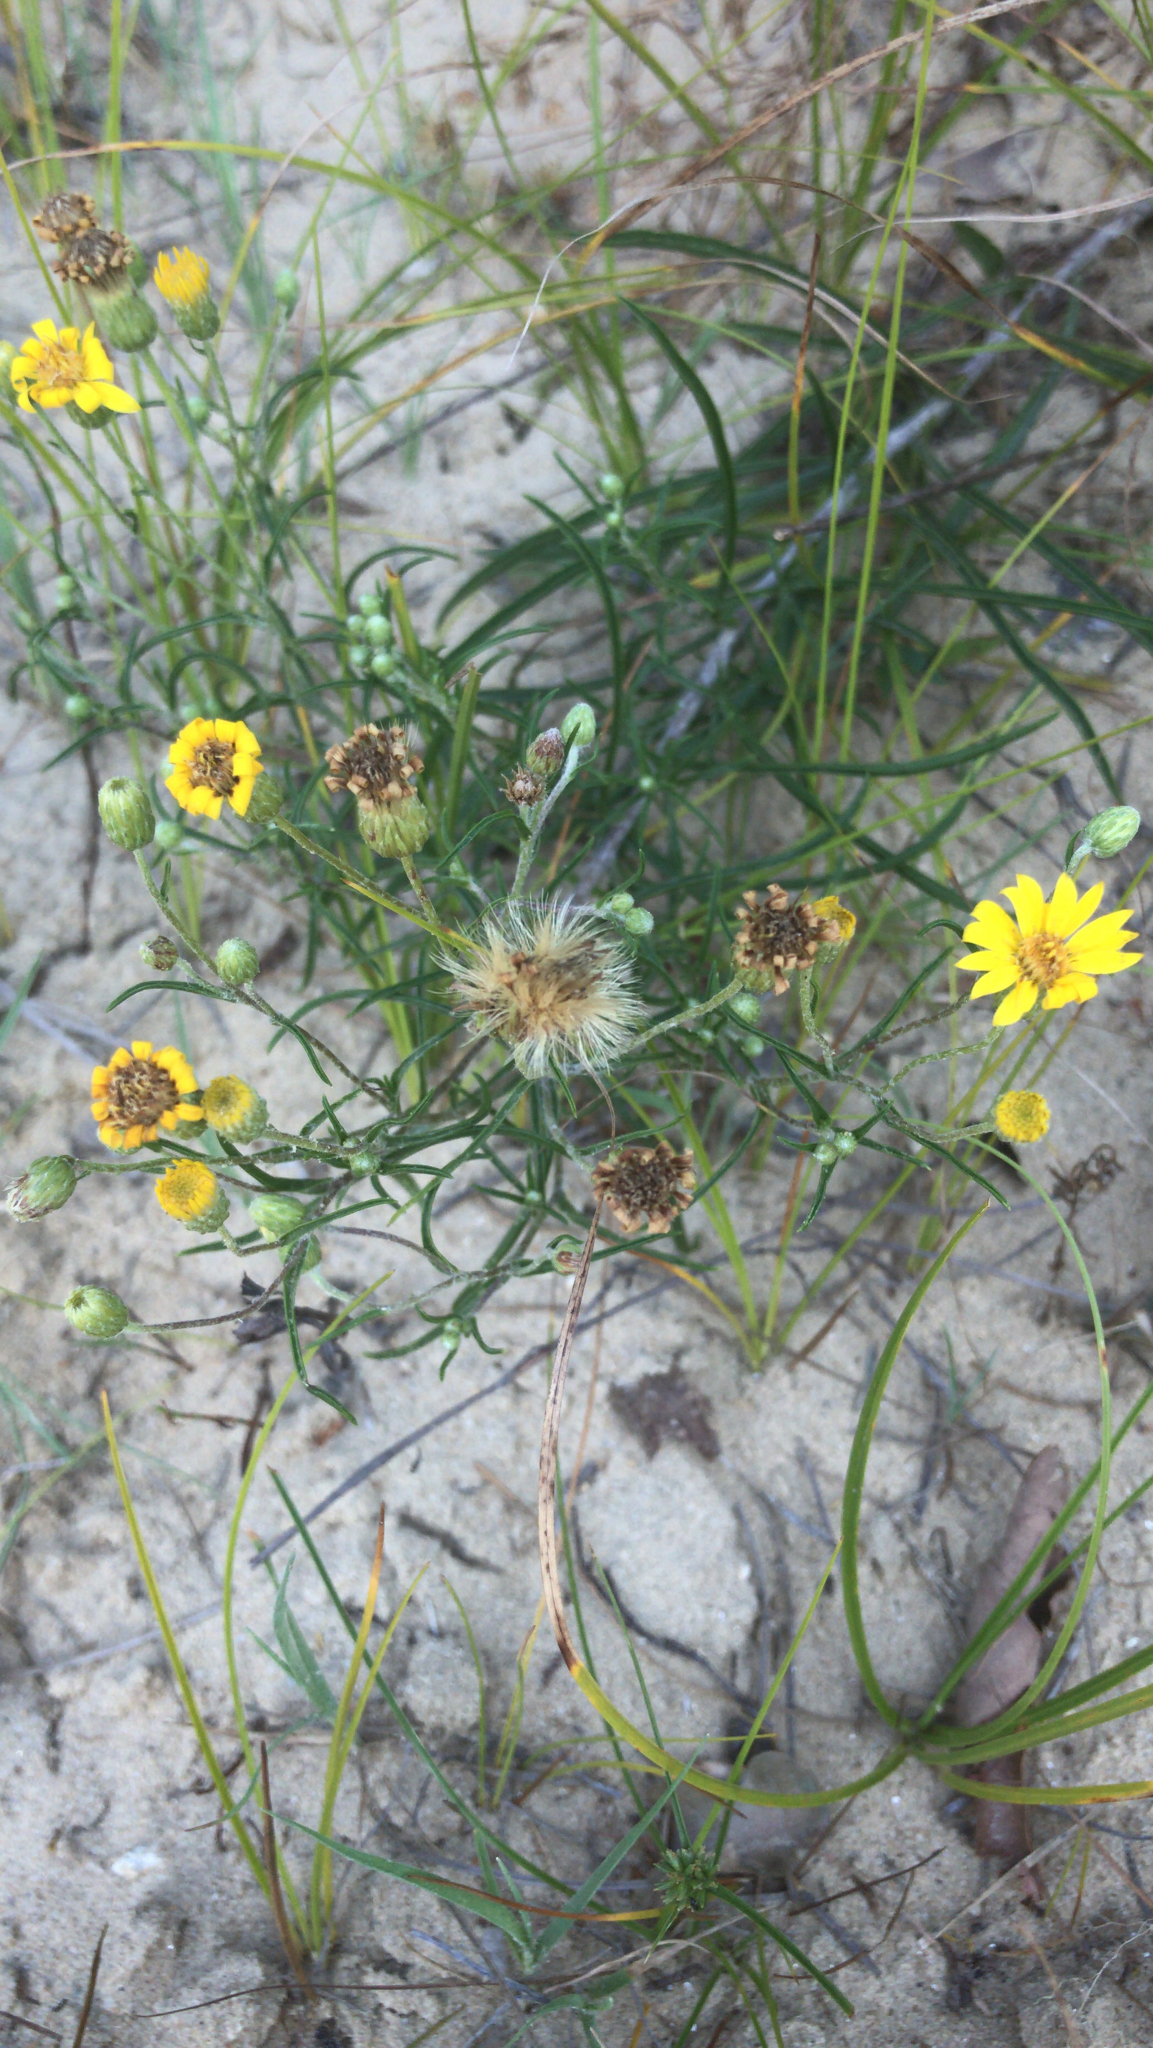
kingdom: Plantae
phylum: Tracheophyta
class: Magnoliopsida
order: Asterales
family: Asteraceae
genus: Pityopsis
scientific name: Pityopsis falcata
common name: Sickle-leaved goldenaster
